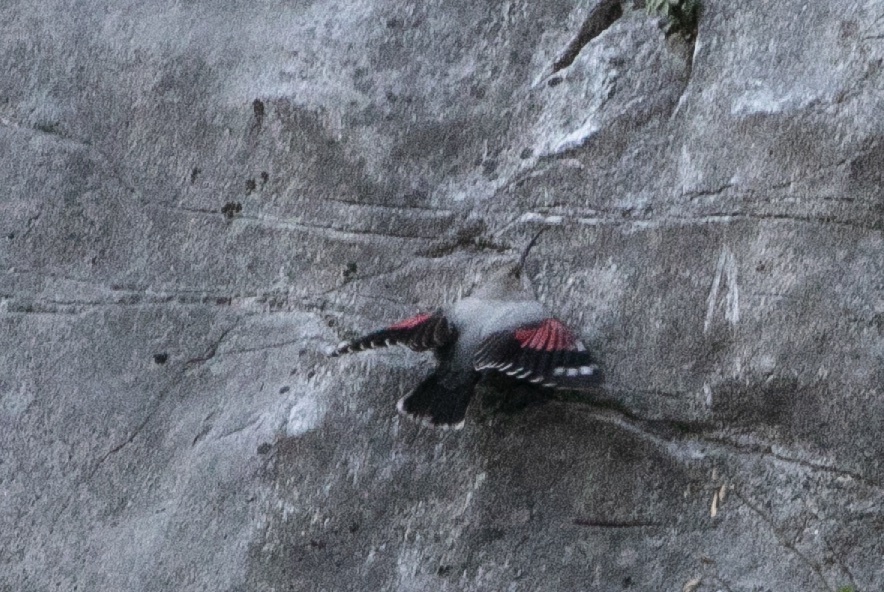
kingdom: Animalia
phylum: Chordata
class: Aves
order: Passeriformes
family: Tichodromidae
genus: Tichodroma
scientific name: Tichodroma muraria
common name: Wallcreeper
